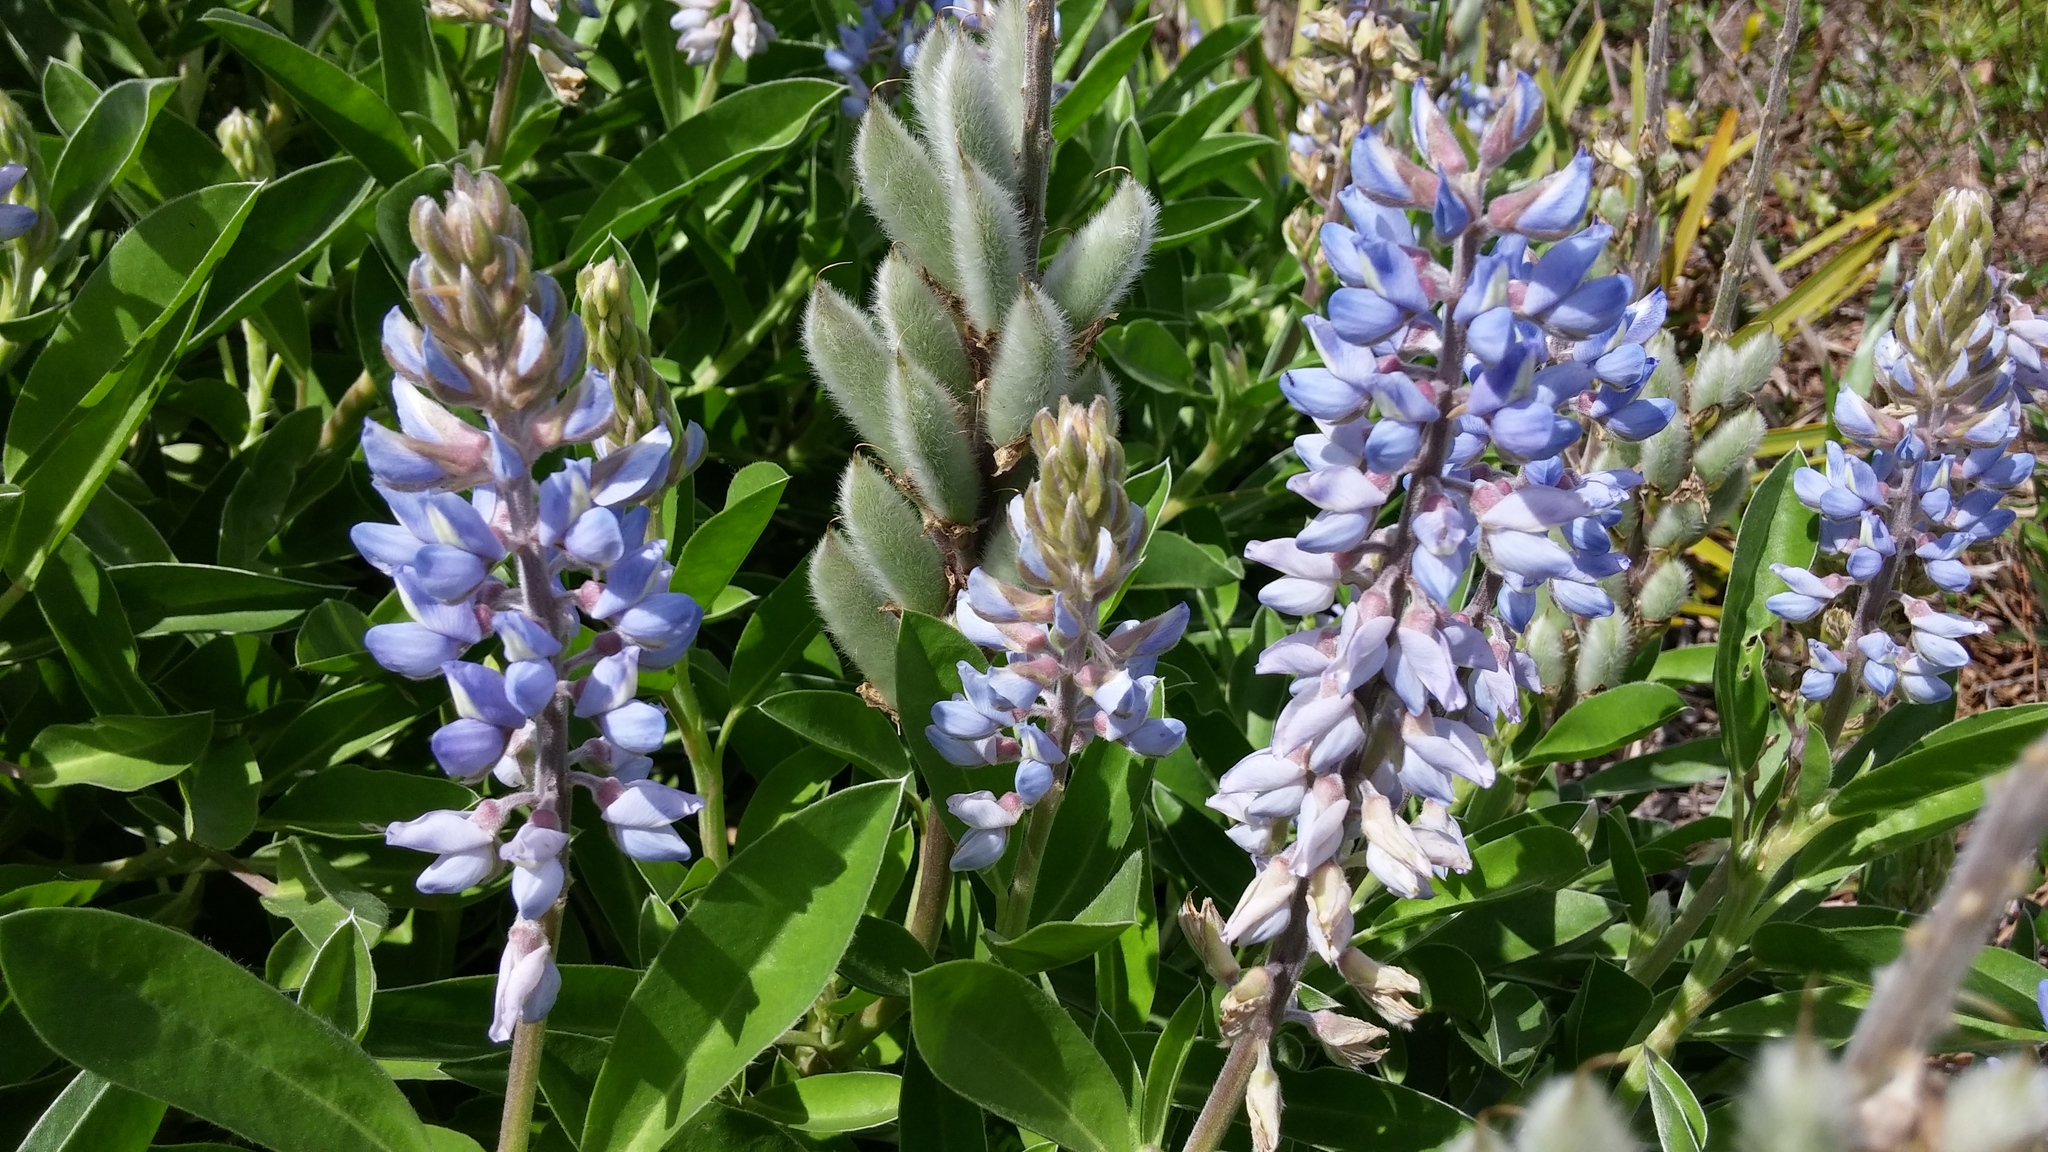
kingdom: Plantae
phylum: Tracheophyta
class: Magnoliopsida
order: Fabales
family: Fabaceae
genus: Lupinus
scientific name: Lupinus
